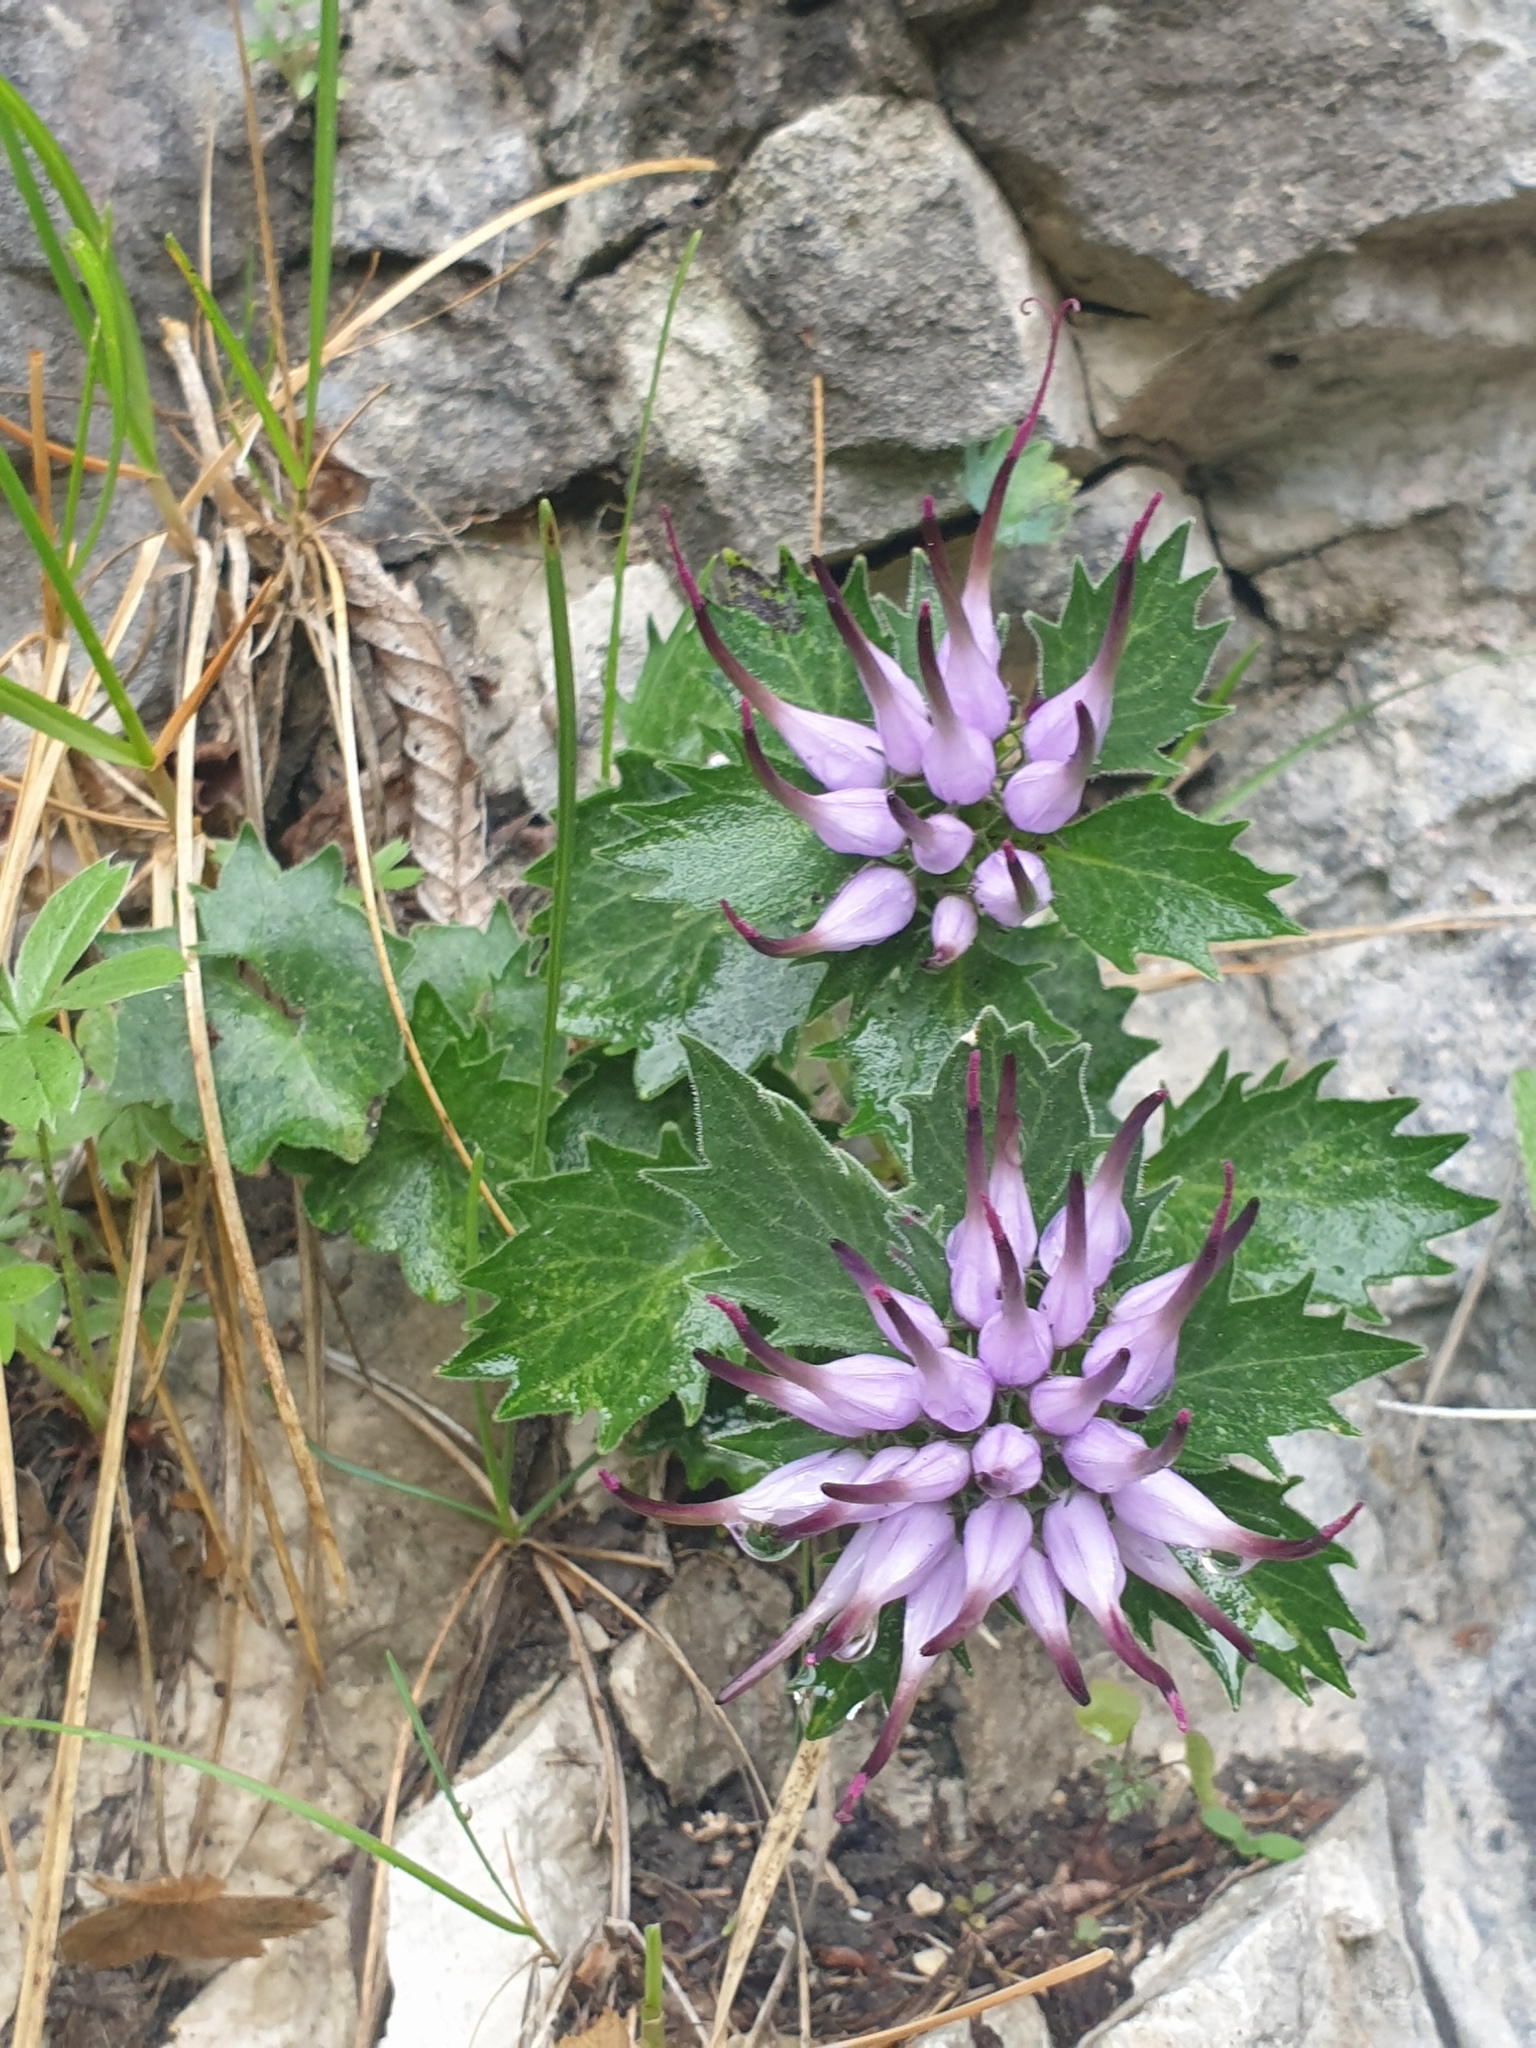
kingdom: Plantae
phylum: Tracheophyta
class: Magnoliopsida
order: Asterales
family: Campanulaceae
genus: Physoplexis
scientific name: Physoplexis comosa
